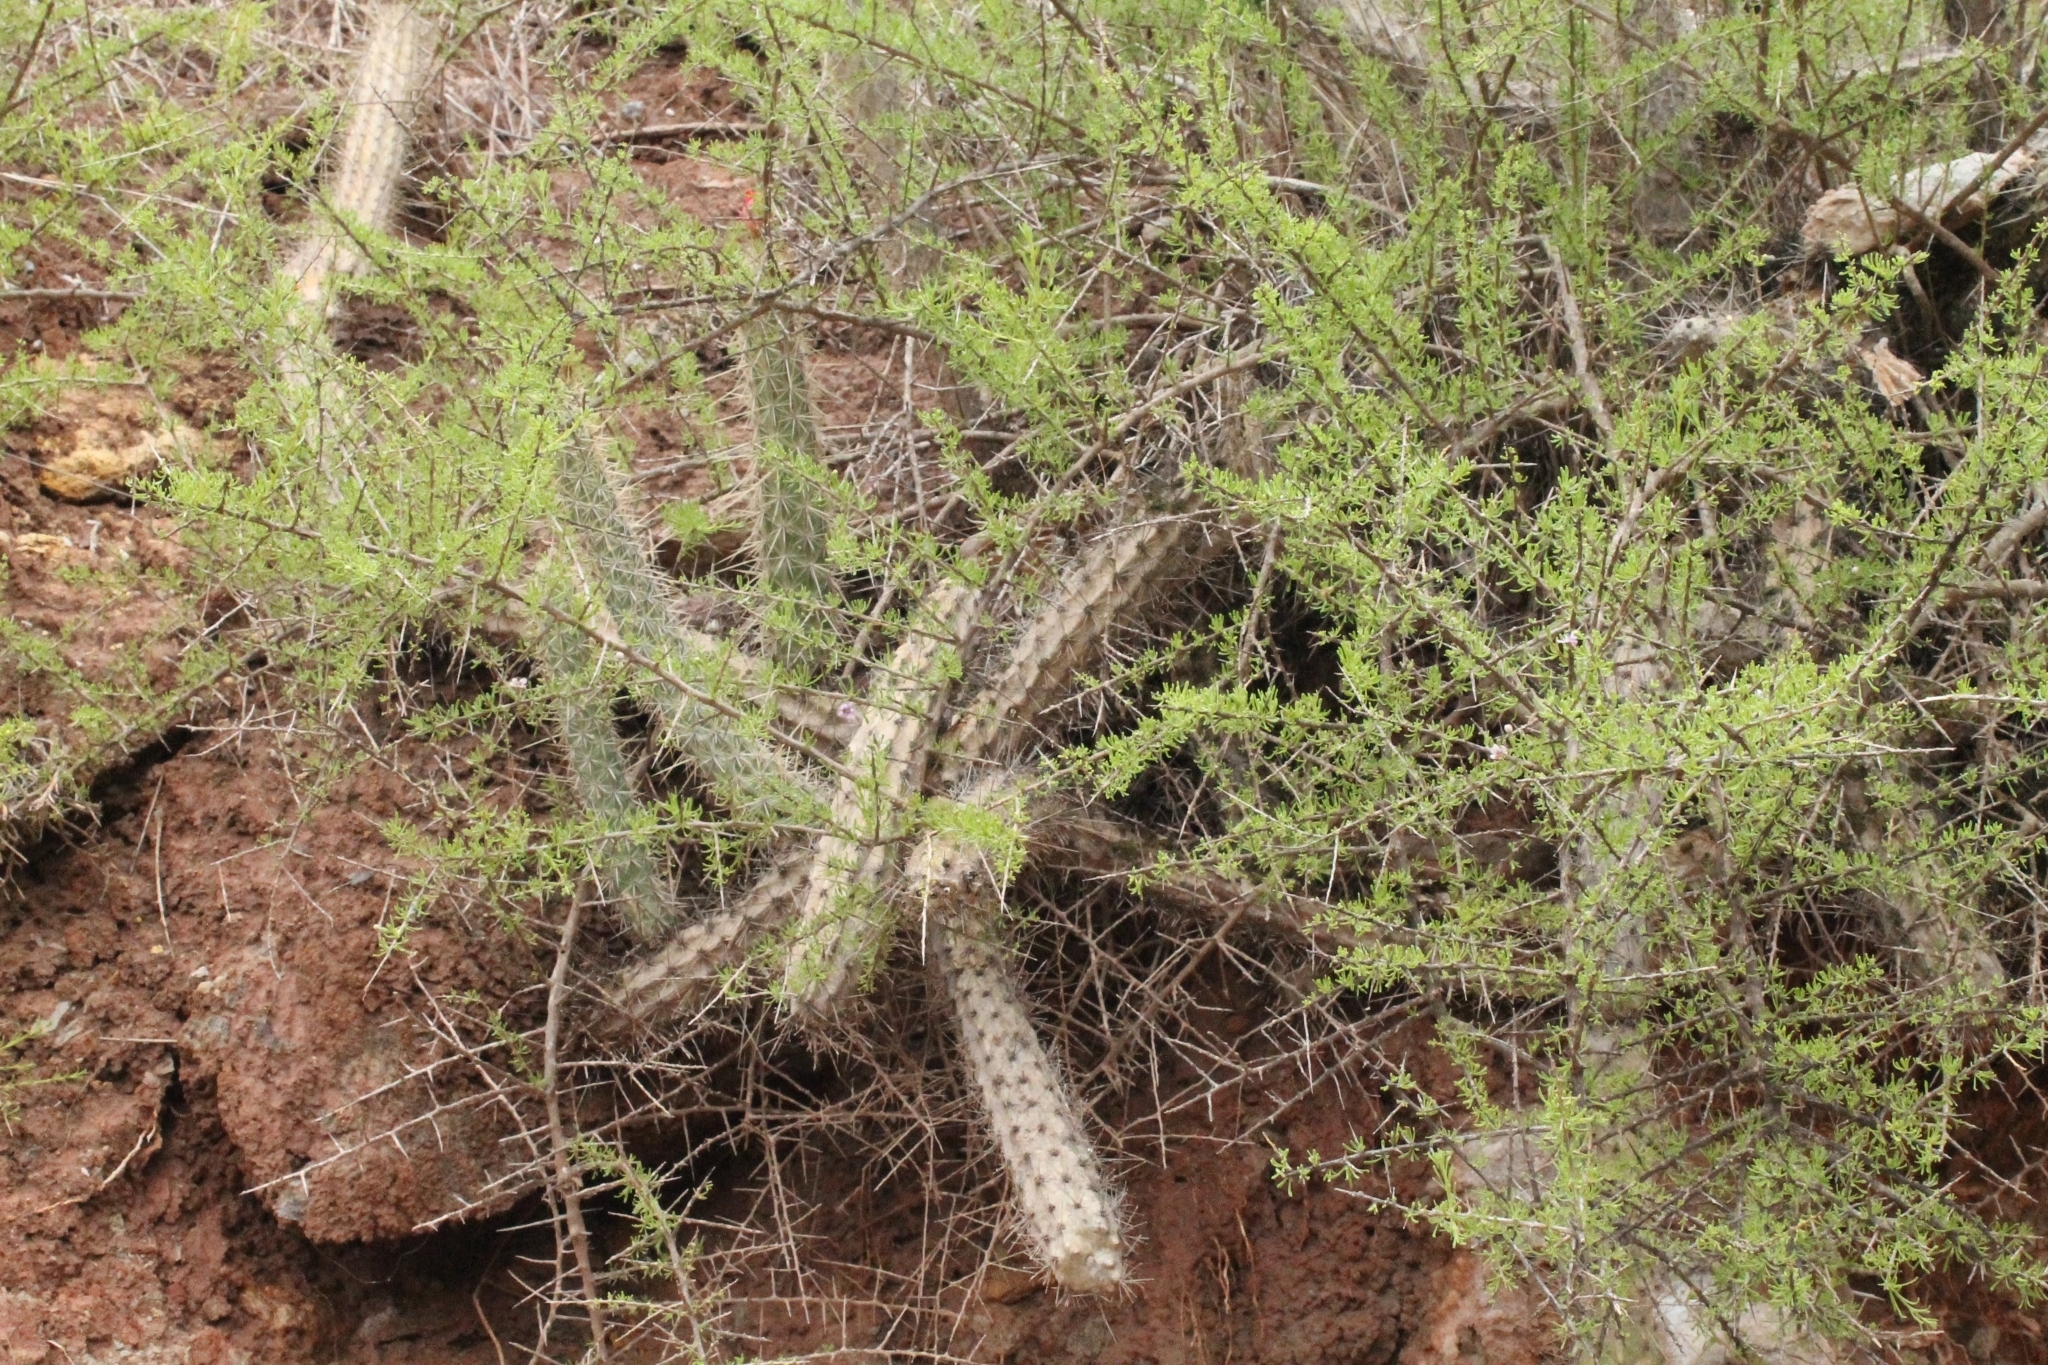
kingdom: Plantae
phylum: Tracheophyta
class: Magnoliopsida
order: Caryophyllales
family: Cactaceae
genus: Corryocactus
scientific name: Corryocactus erectus
